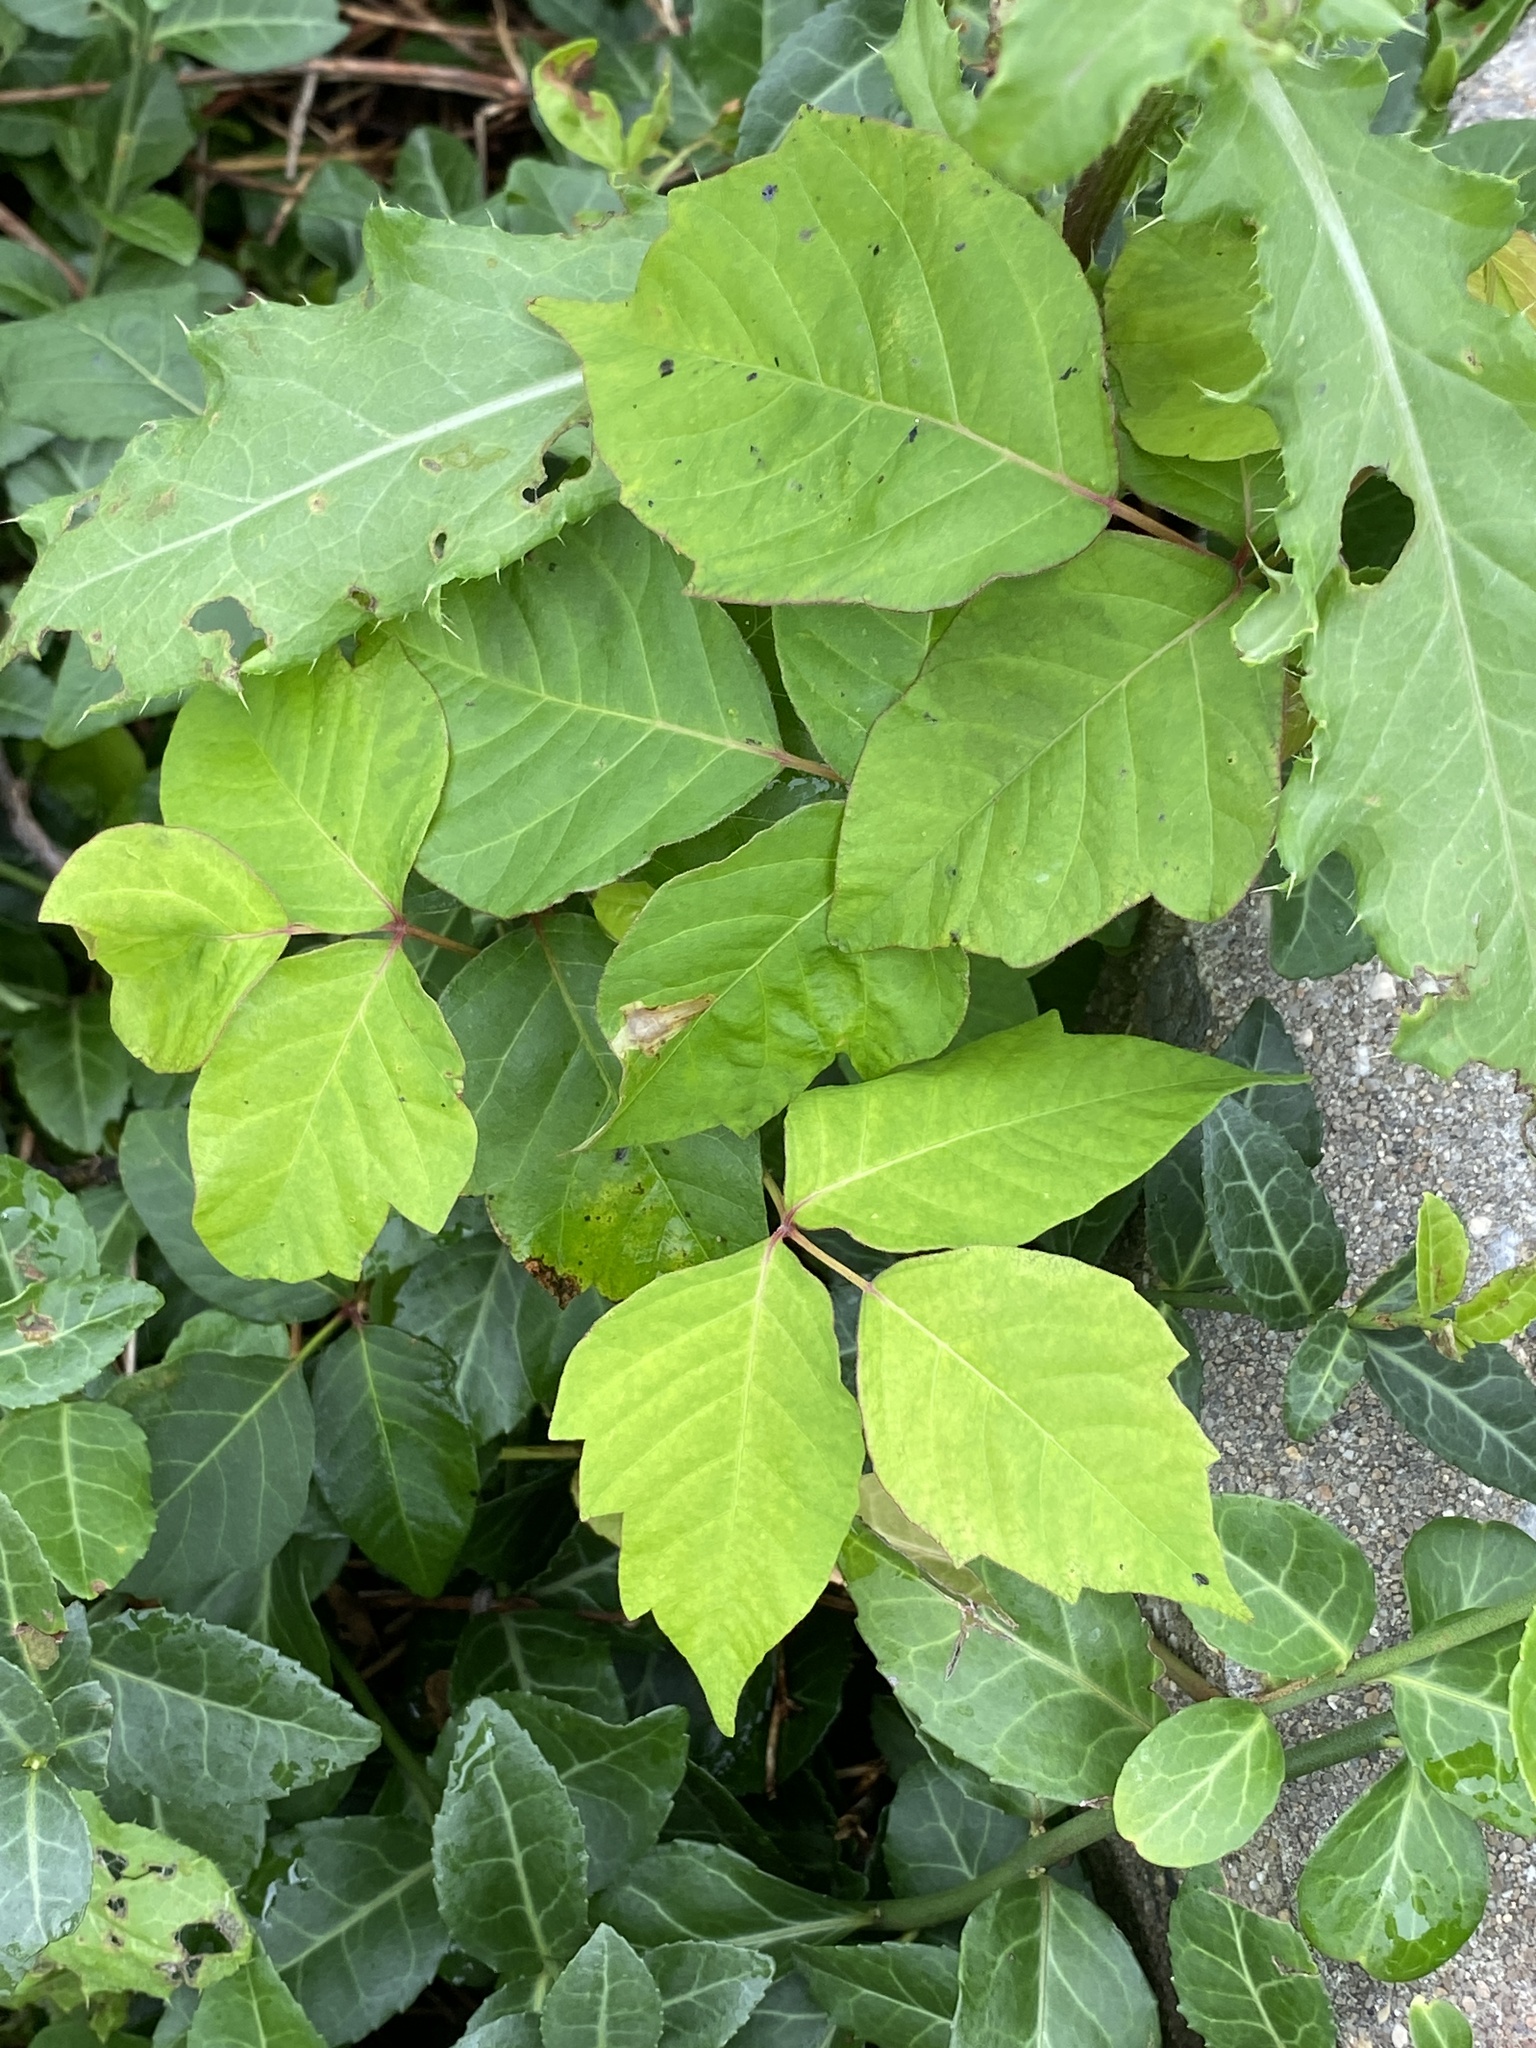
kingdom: Plantae
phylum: Tracheophyta
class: Magnoliopsida
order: Sapindales
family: Anacardiaceae
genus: Toxicodendron
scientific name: Toxicodendron radicans
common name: Poison ivy
